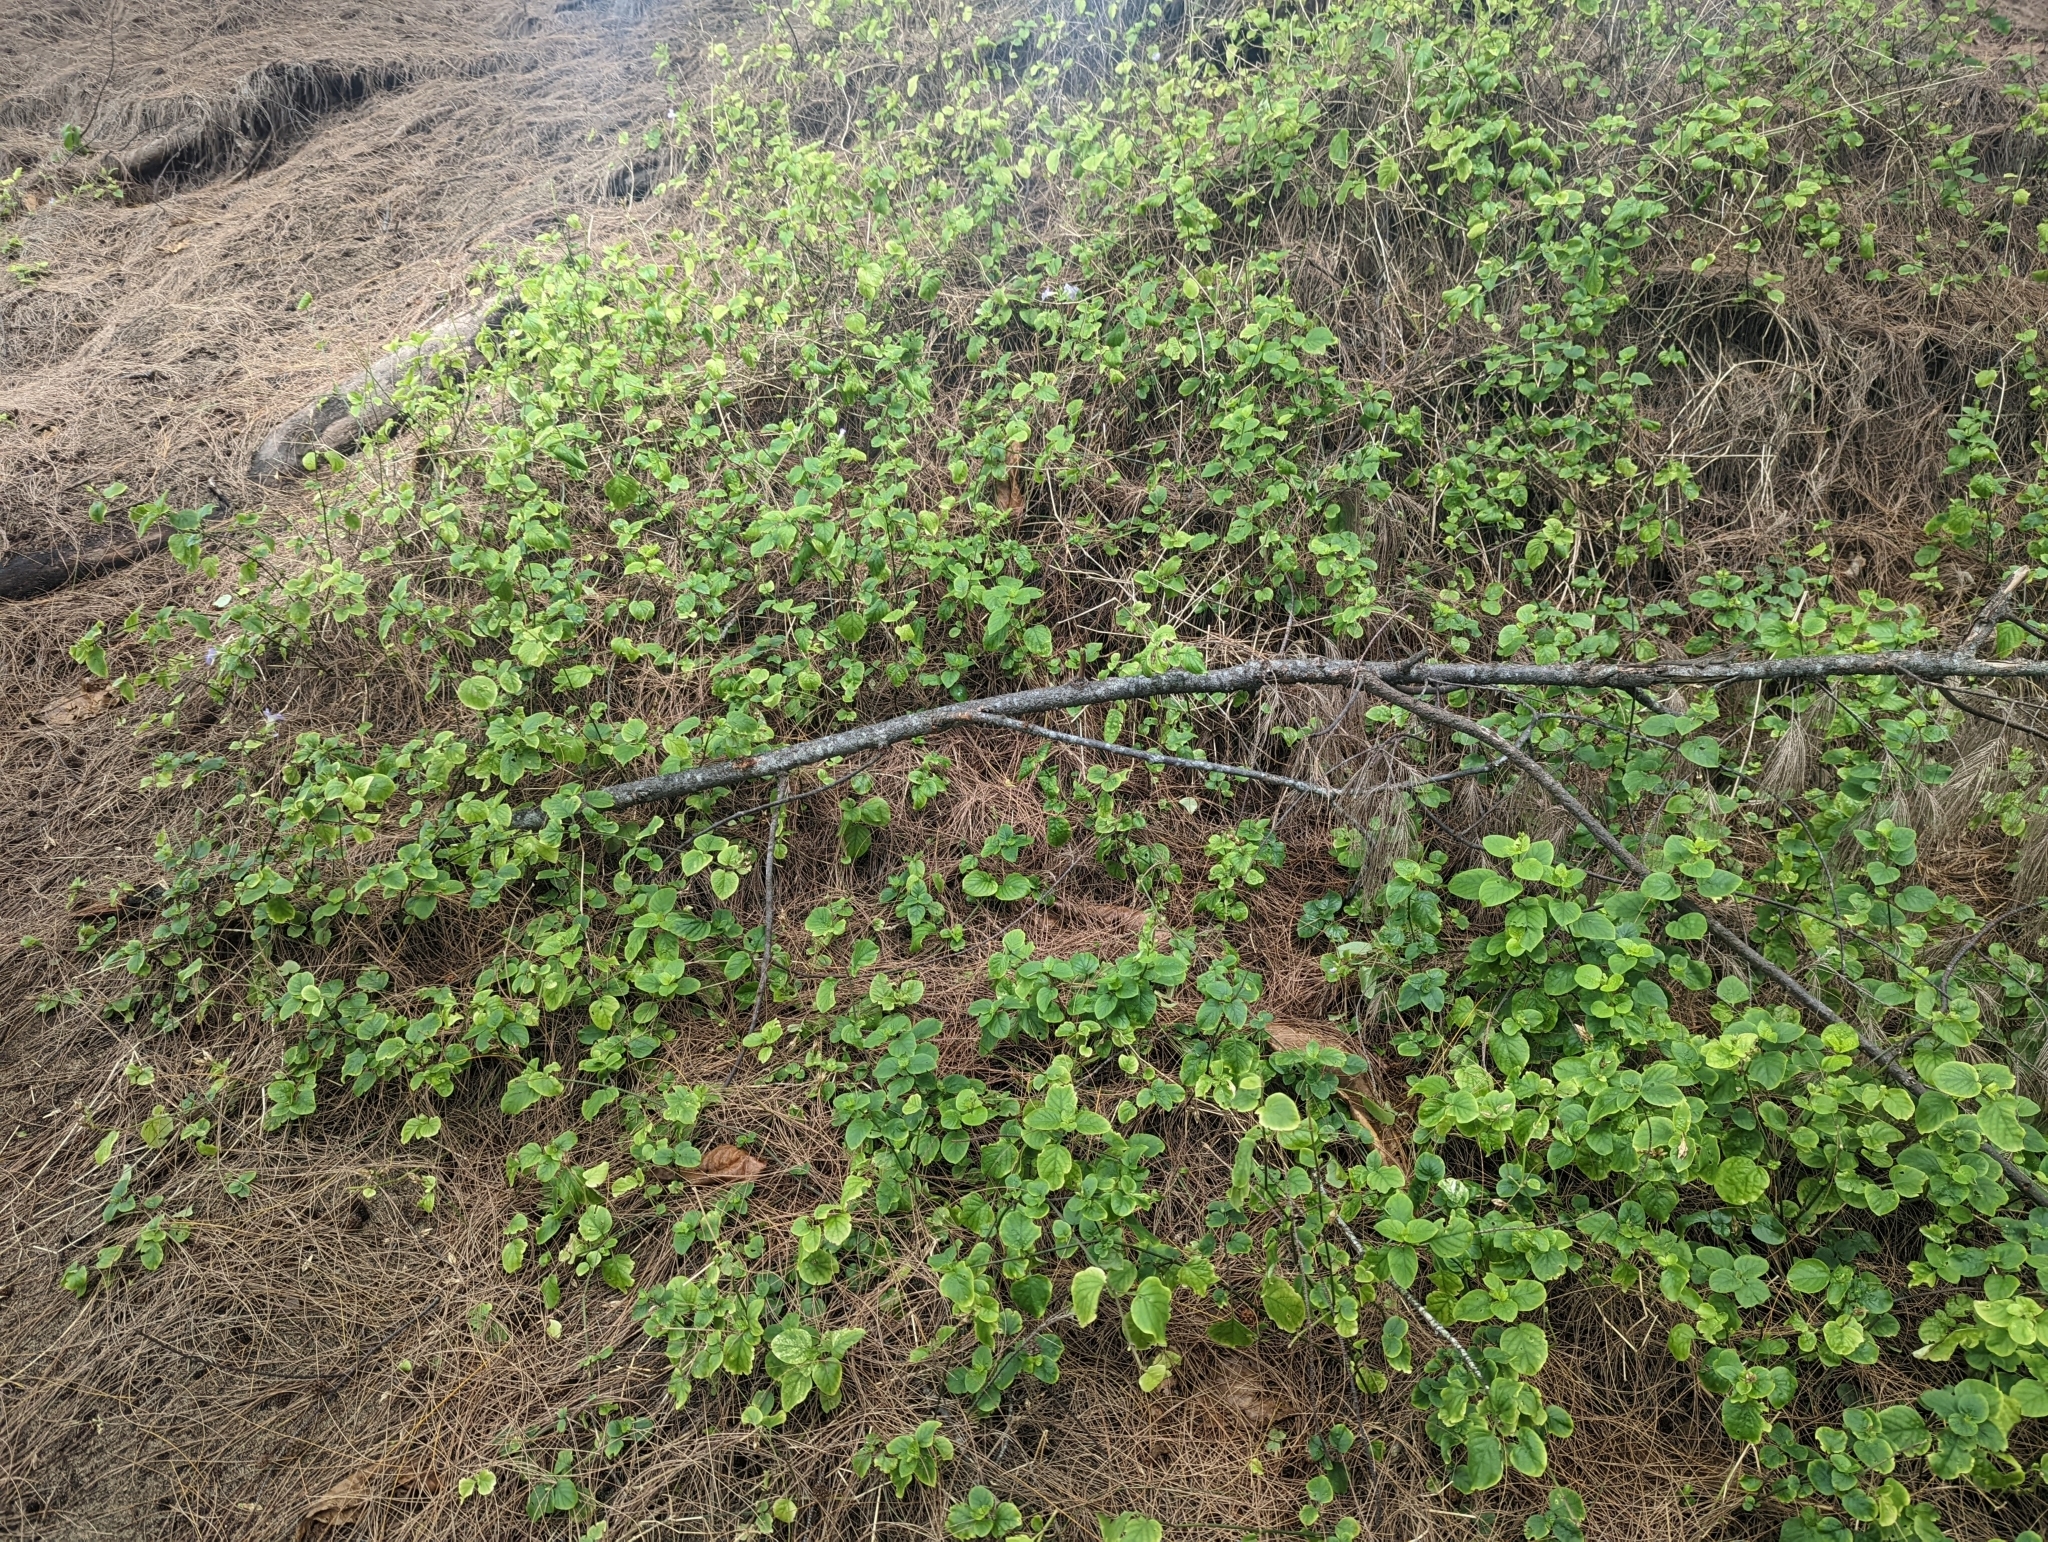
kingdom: Plantae
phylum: Tracheophyta
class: Magnoliopsida
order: Lamiales
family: Acanthaceae
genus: Asystasia
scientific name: Asystasia gangetica
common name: Chinese violet
